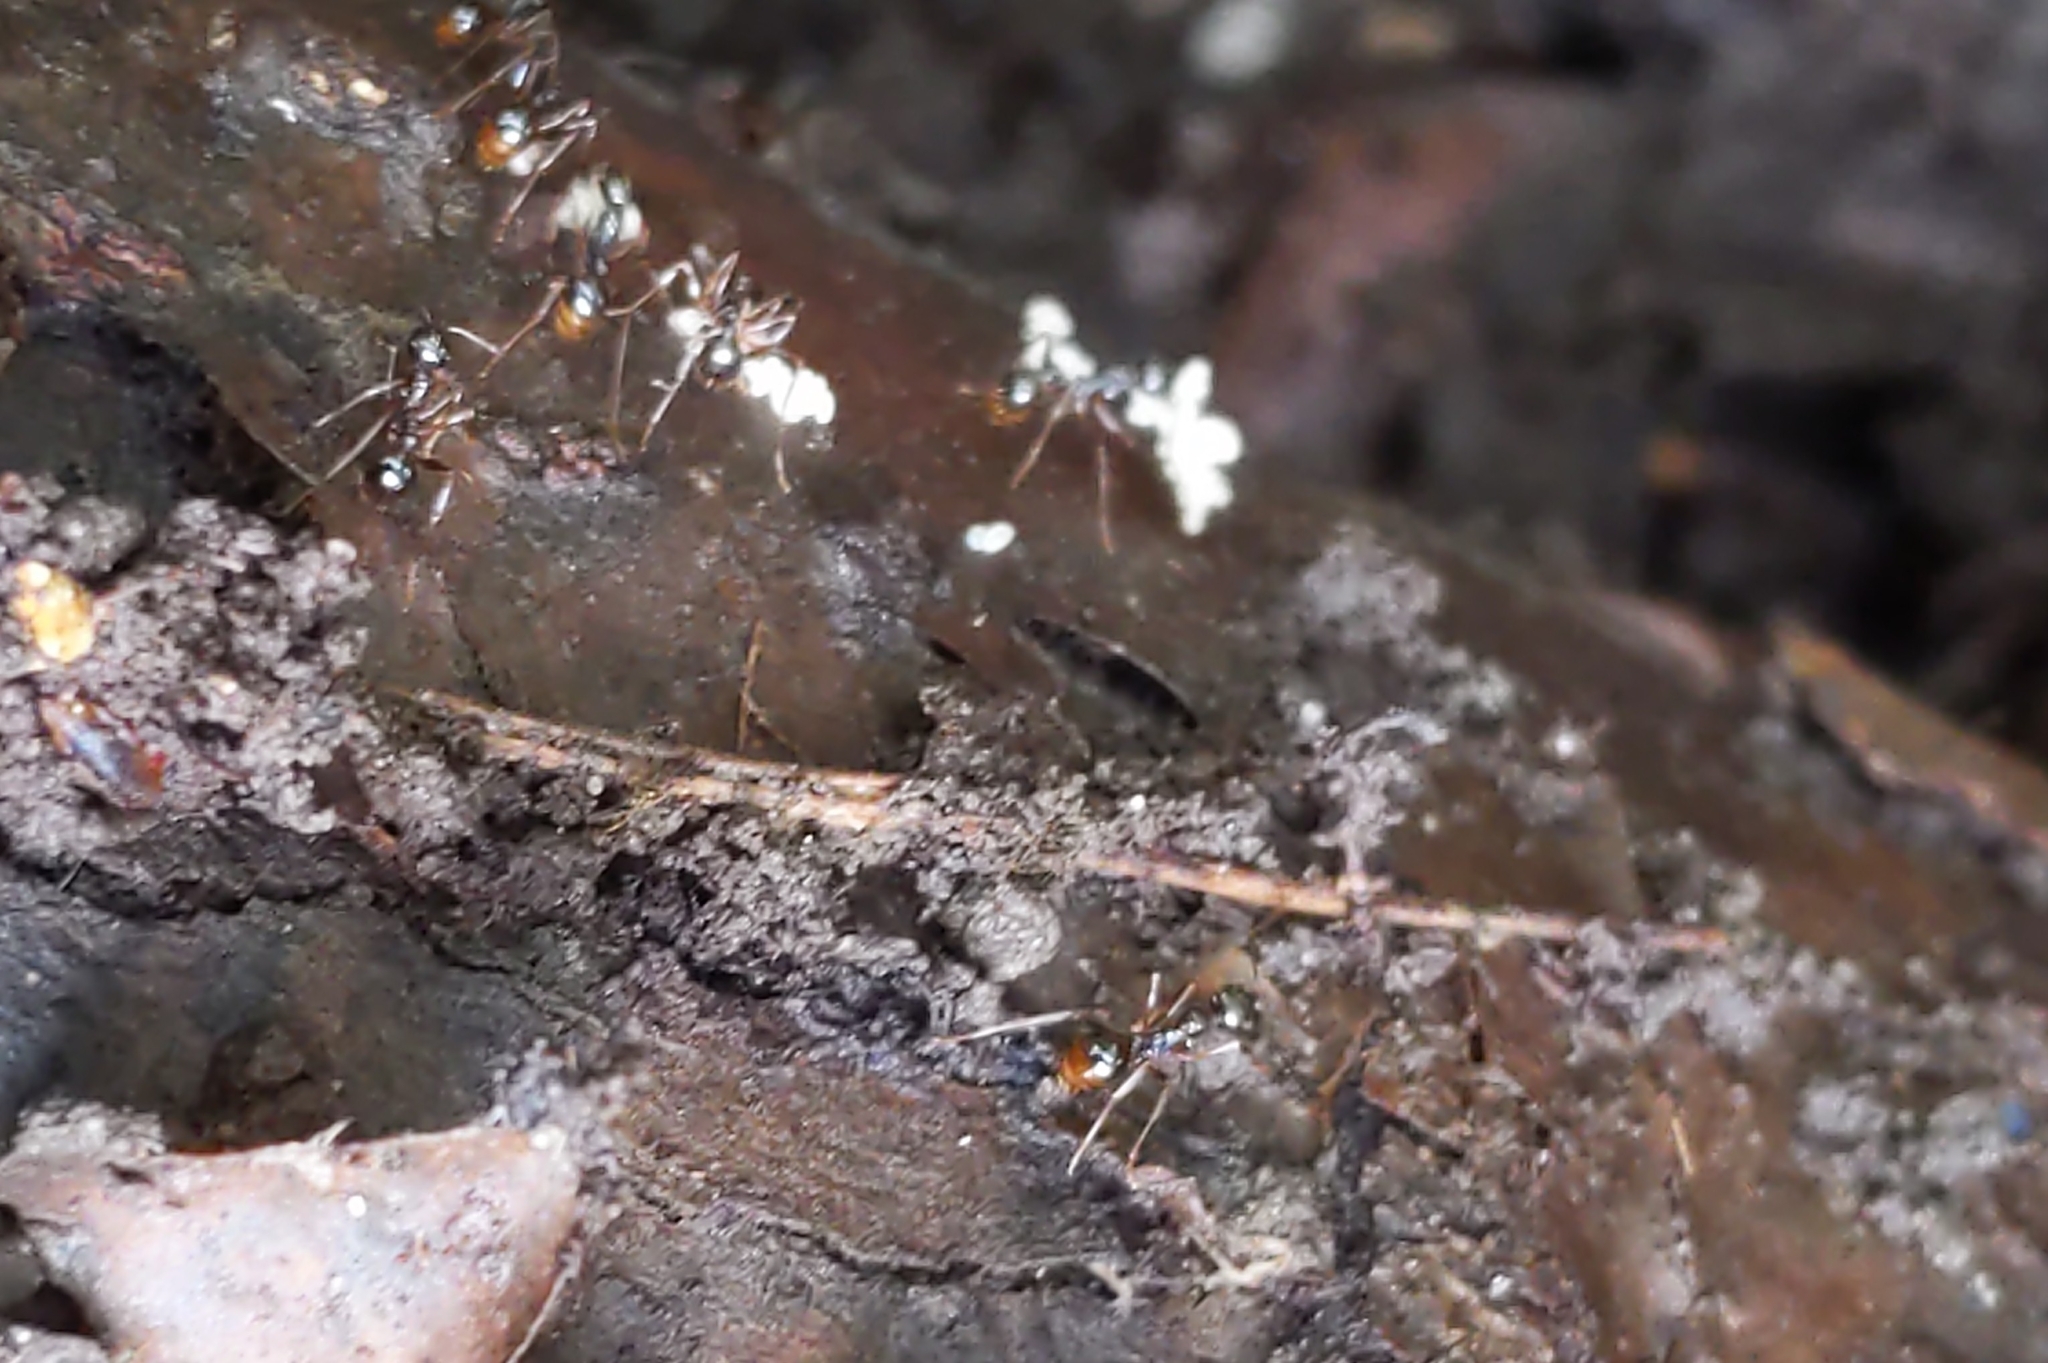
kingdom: Animalia
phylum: Arthropoda
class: Insecta
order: Hymenoptera
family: Formicidae
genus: Aphaenogaster
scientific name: Aphaenogaster
